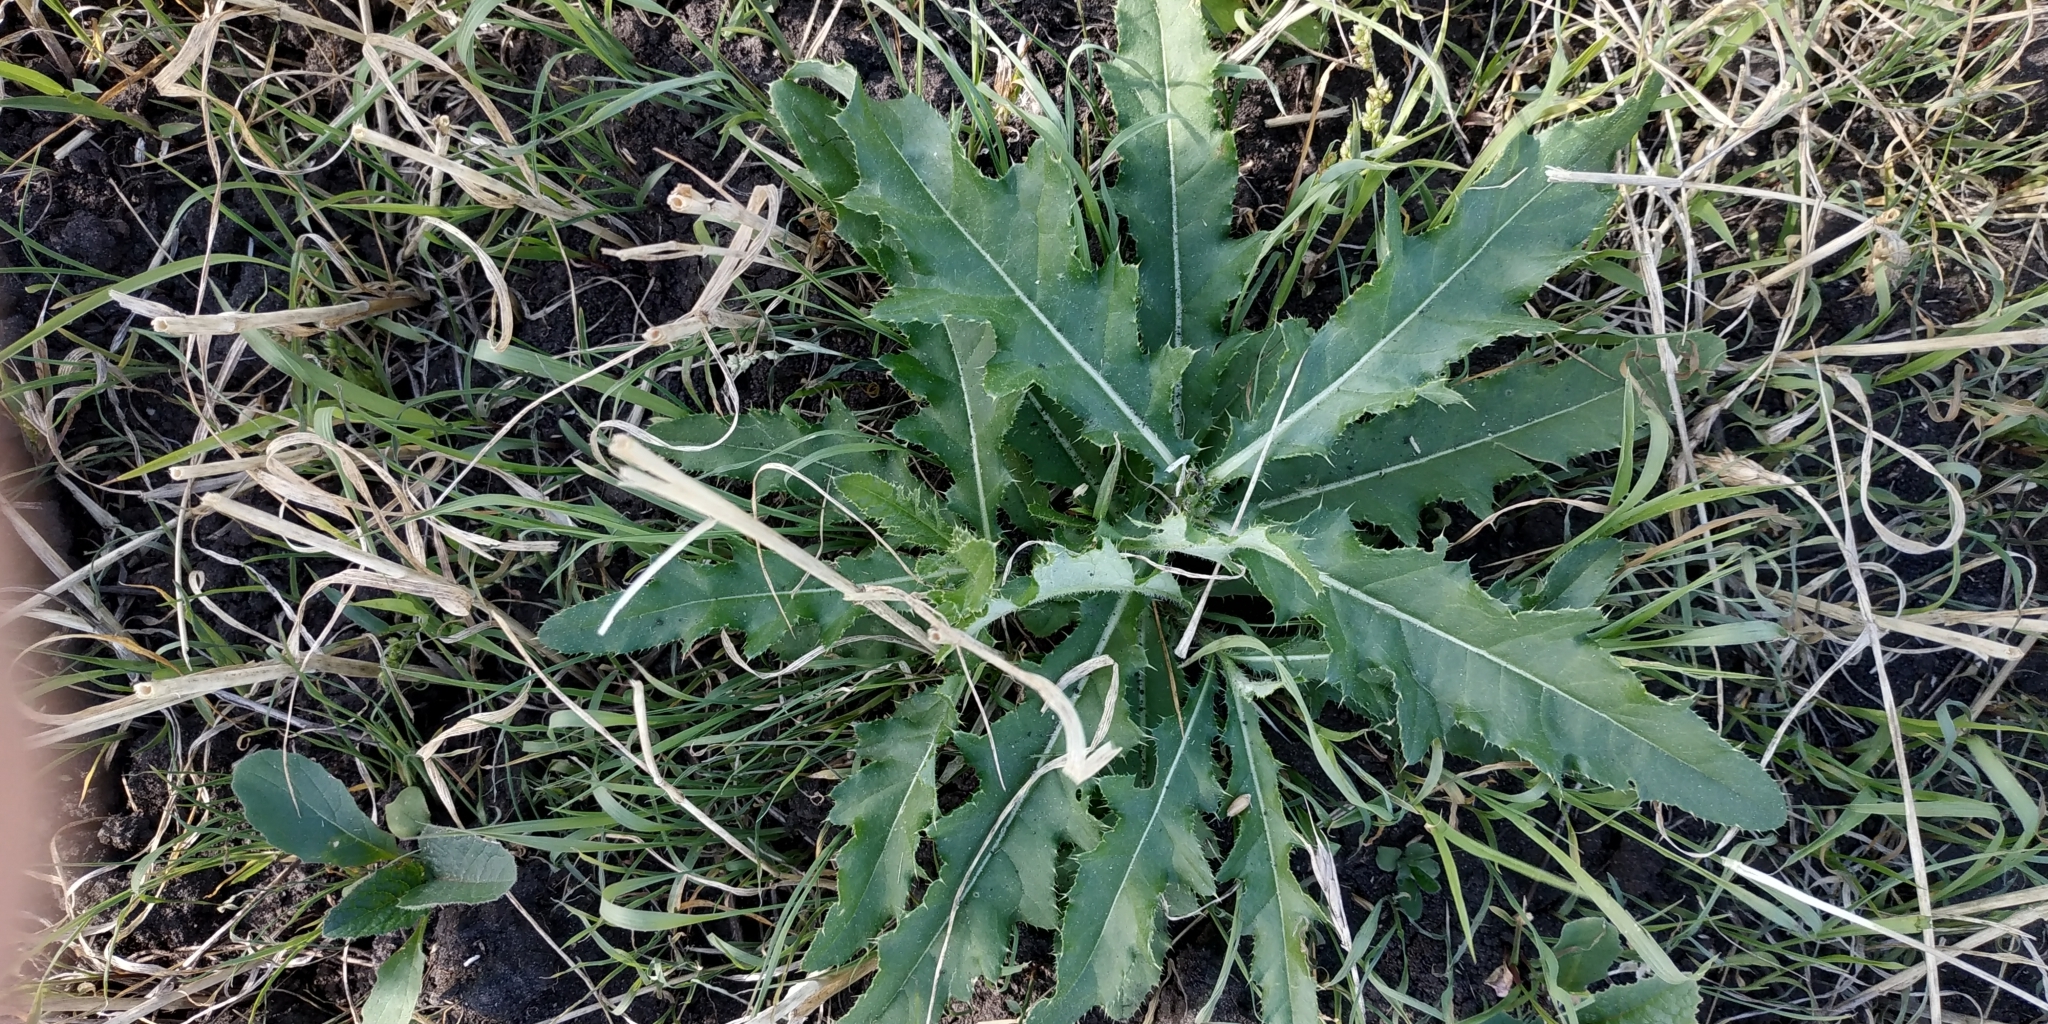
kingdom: Plantae
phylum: Tracheophyta
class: Magnoliopsida
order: Asterales
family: Asteraceae
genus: Cirsium
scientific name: Cirsium arvense
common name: Creeping thistle
